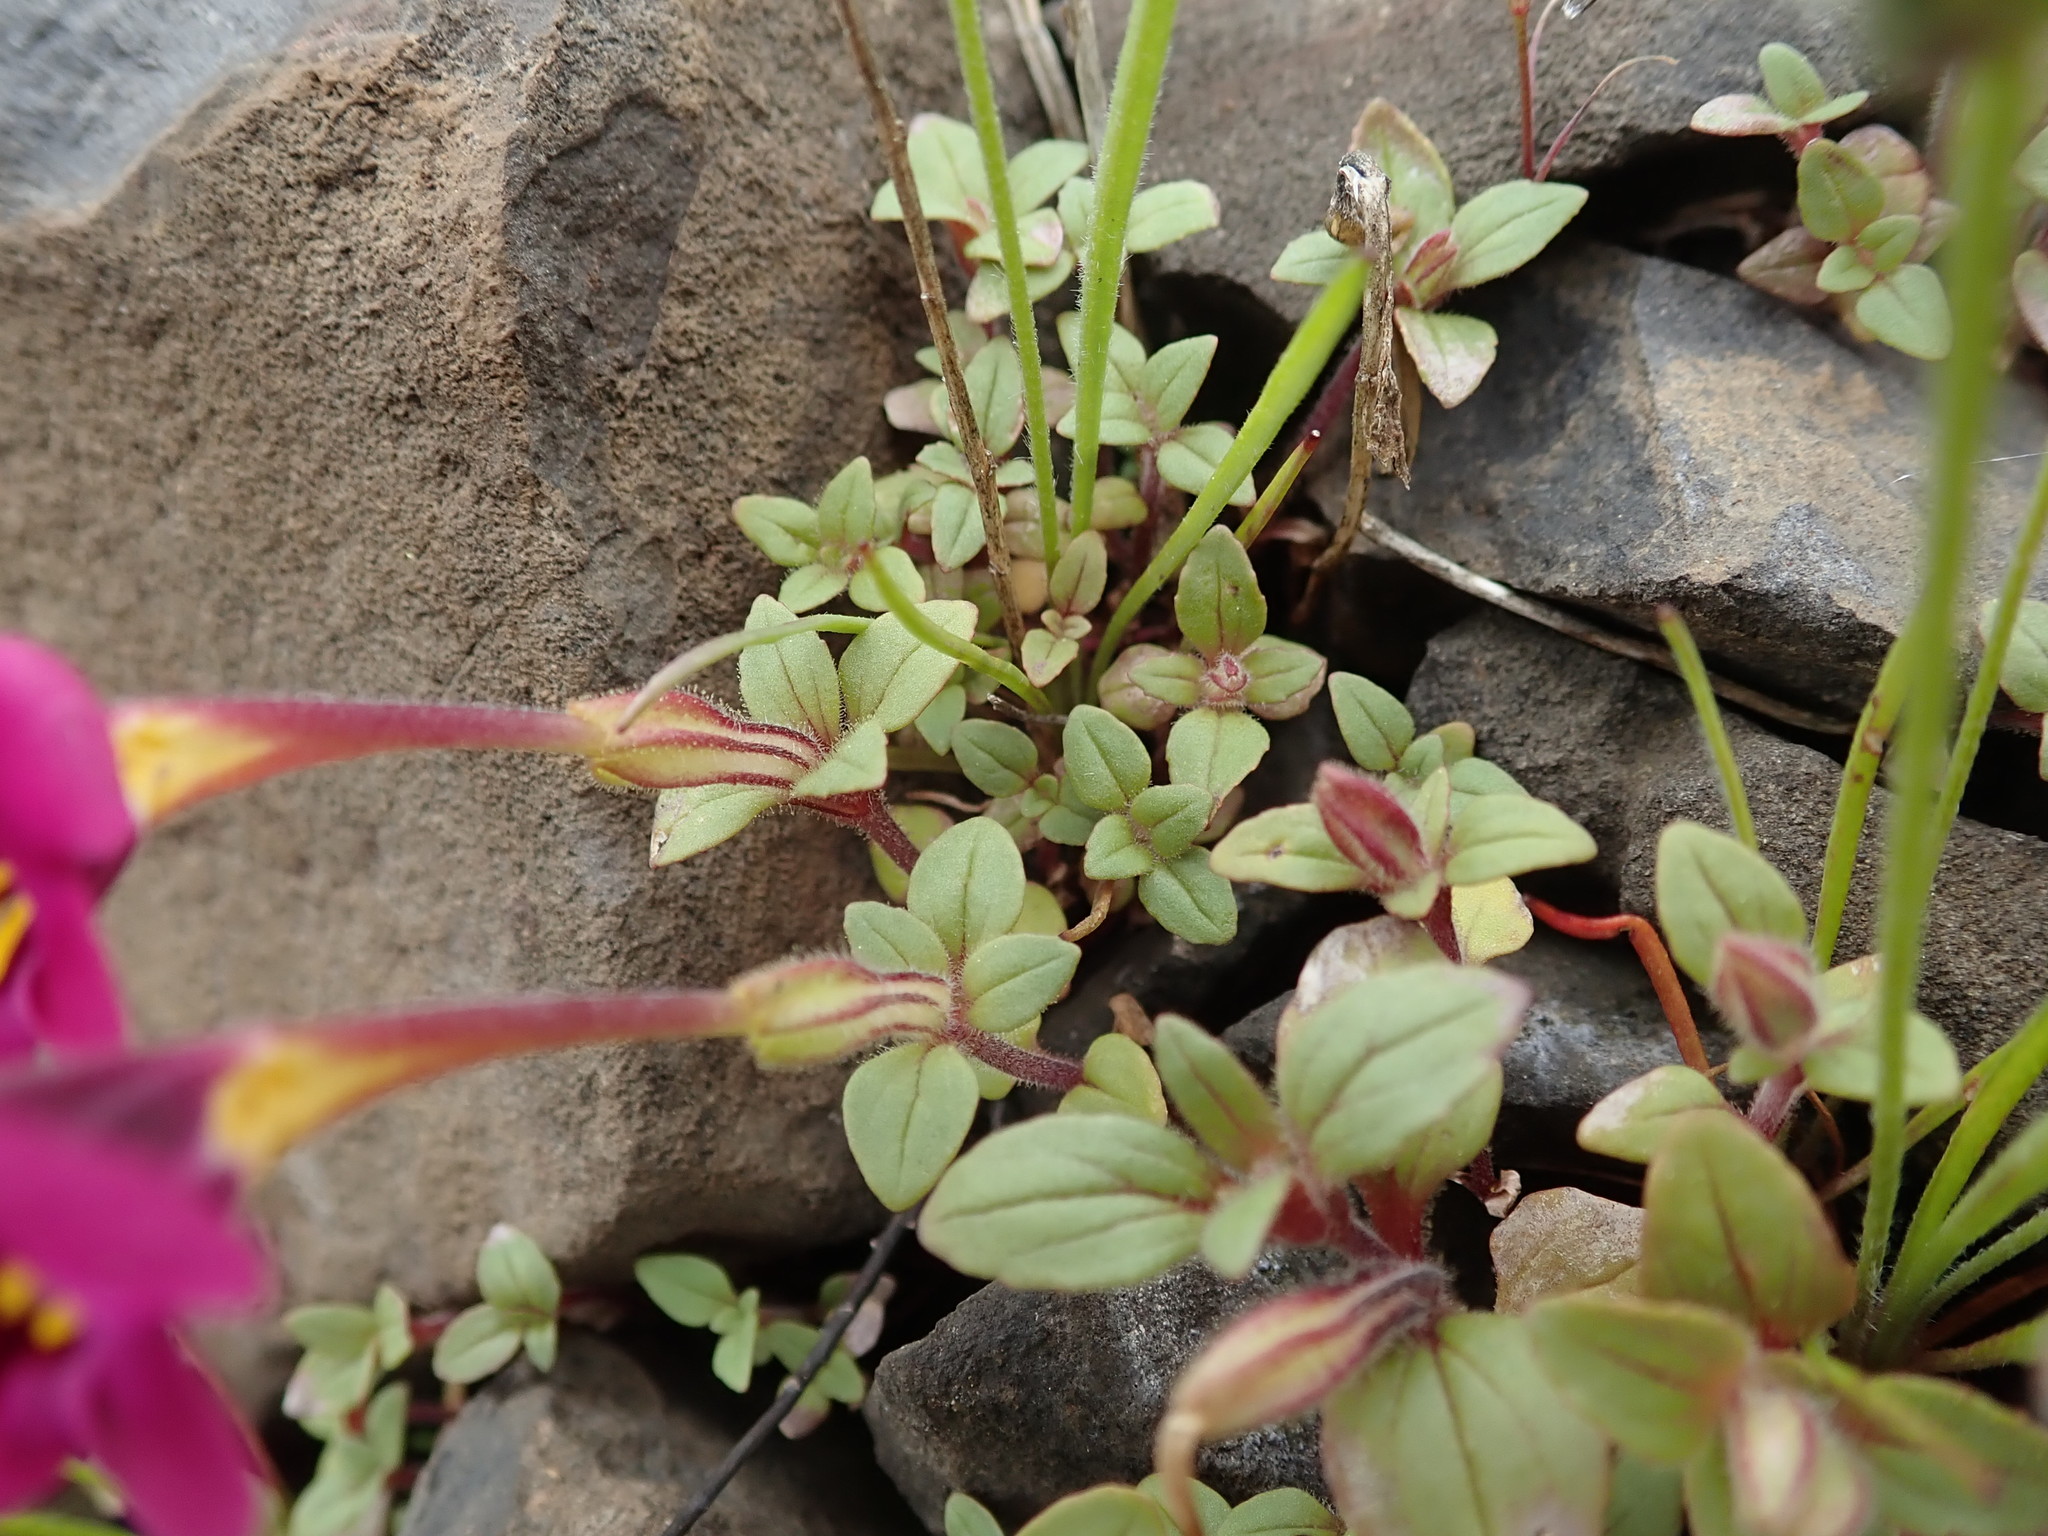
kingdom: Plantae
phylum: Tracheophyta
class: Magnoliopsida
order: Lamiales
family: Phrymaceae
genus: Diplacus
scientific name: Diplacus kelloggii
